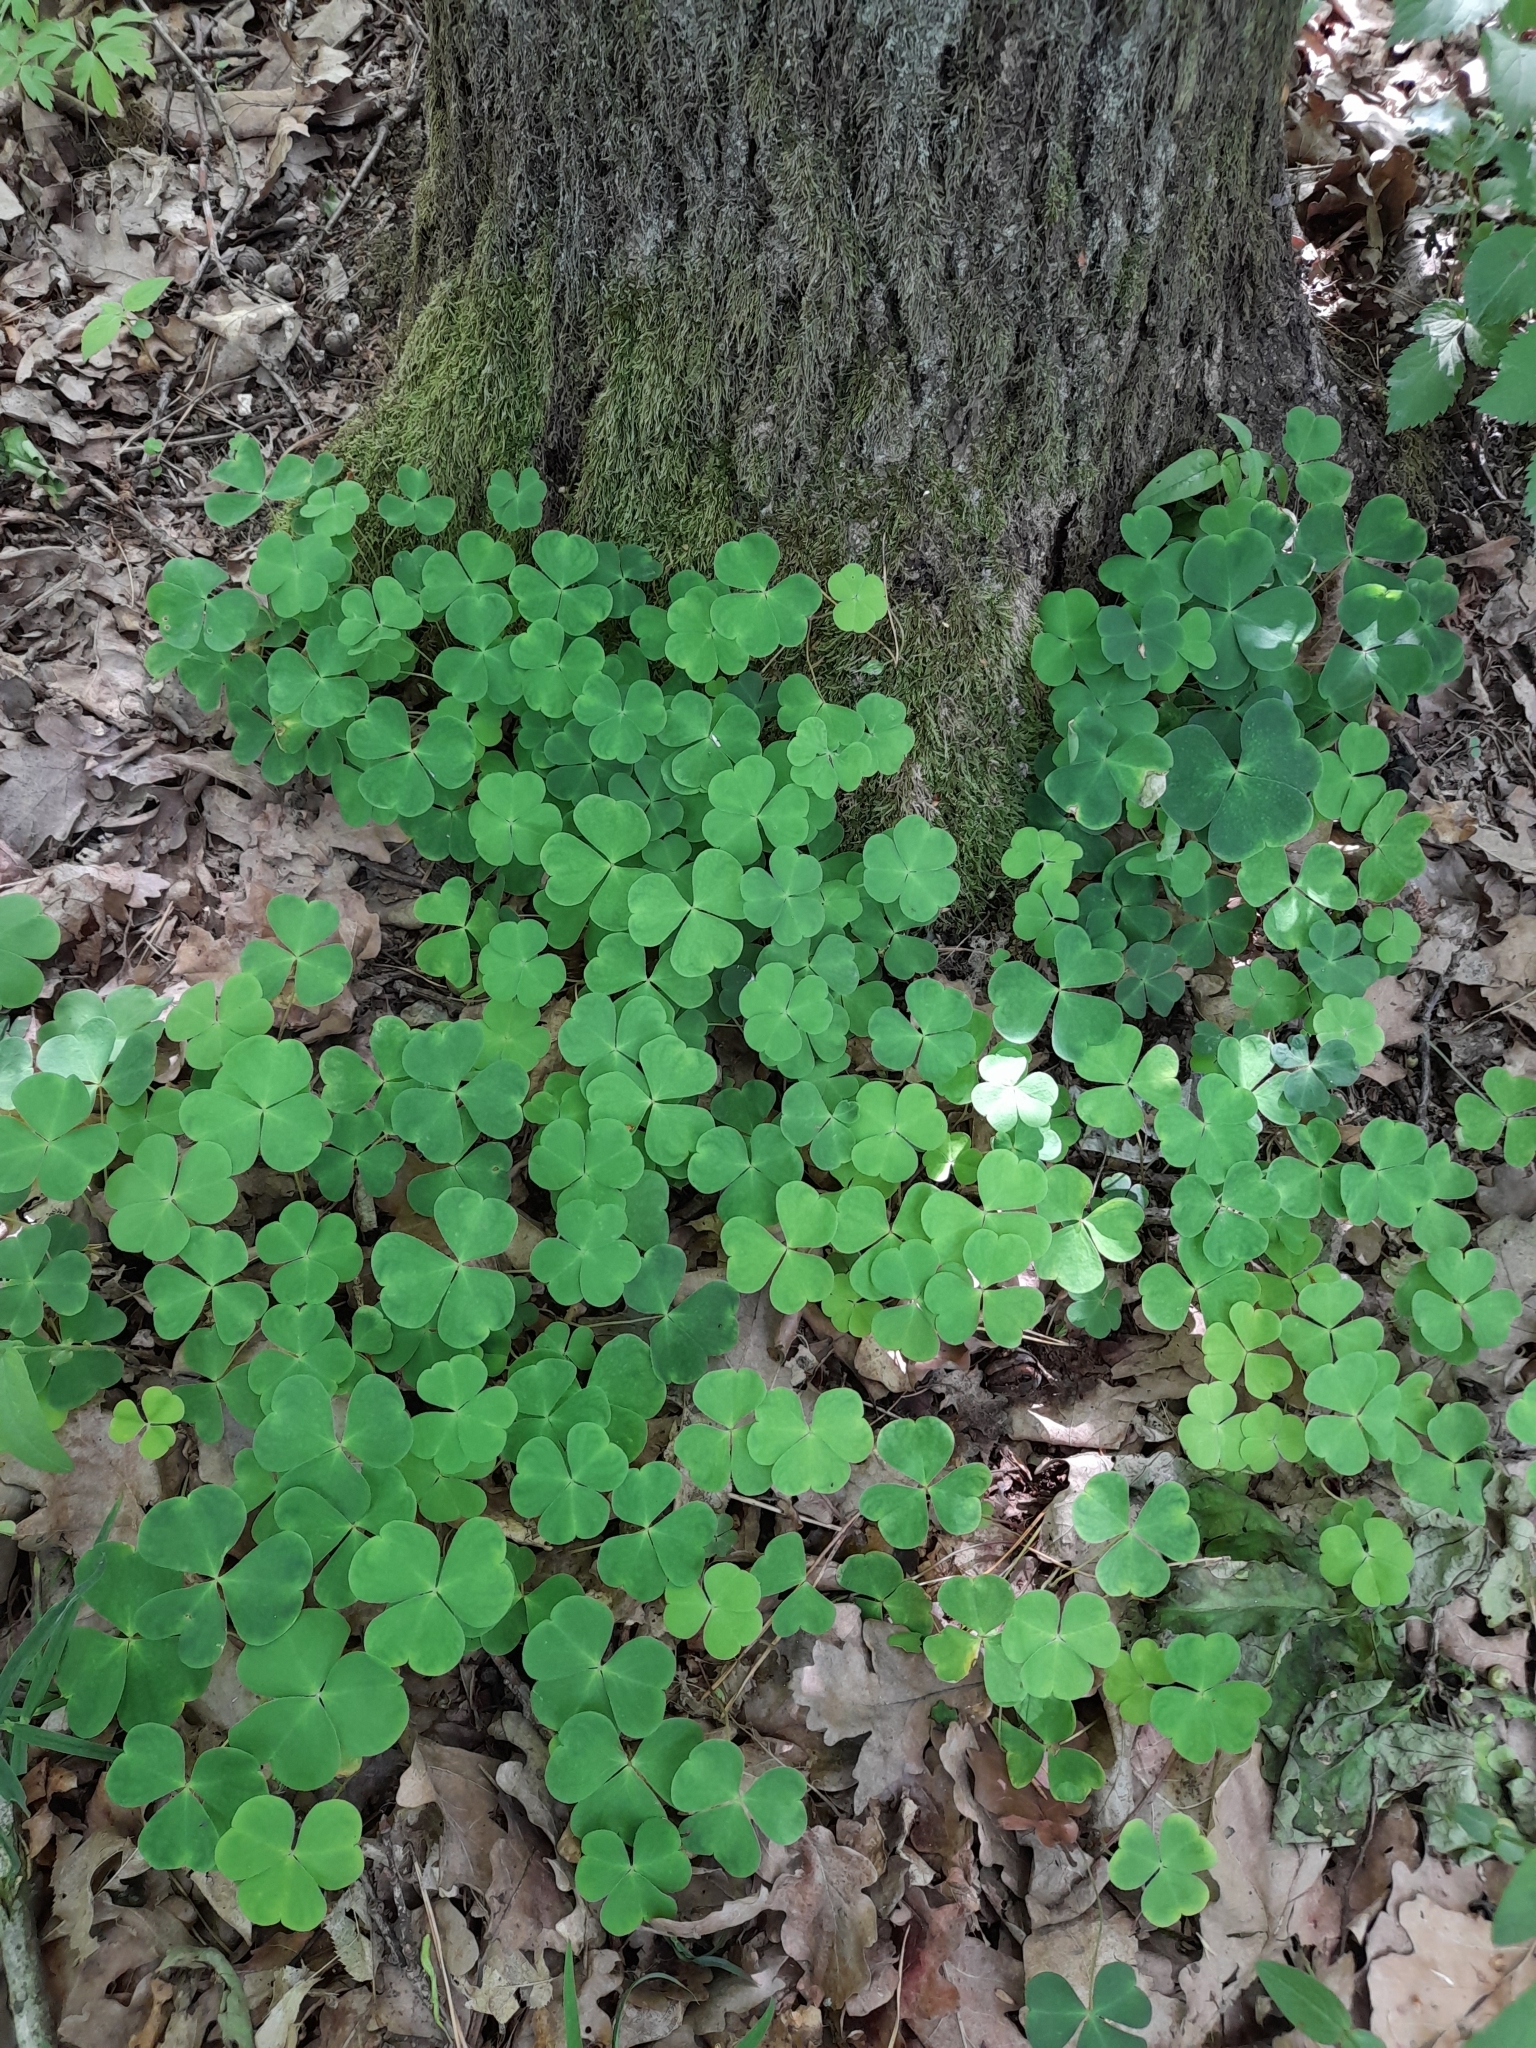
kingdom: Plantae
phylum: Tracheophyta
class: Magnoliopsida
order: Oxalidales
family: Oxalidaceae
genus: Oxalis
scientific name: Oxalis acetosella
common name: Wood-sorrel
